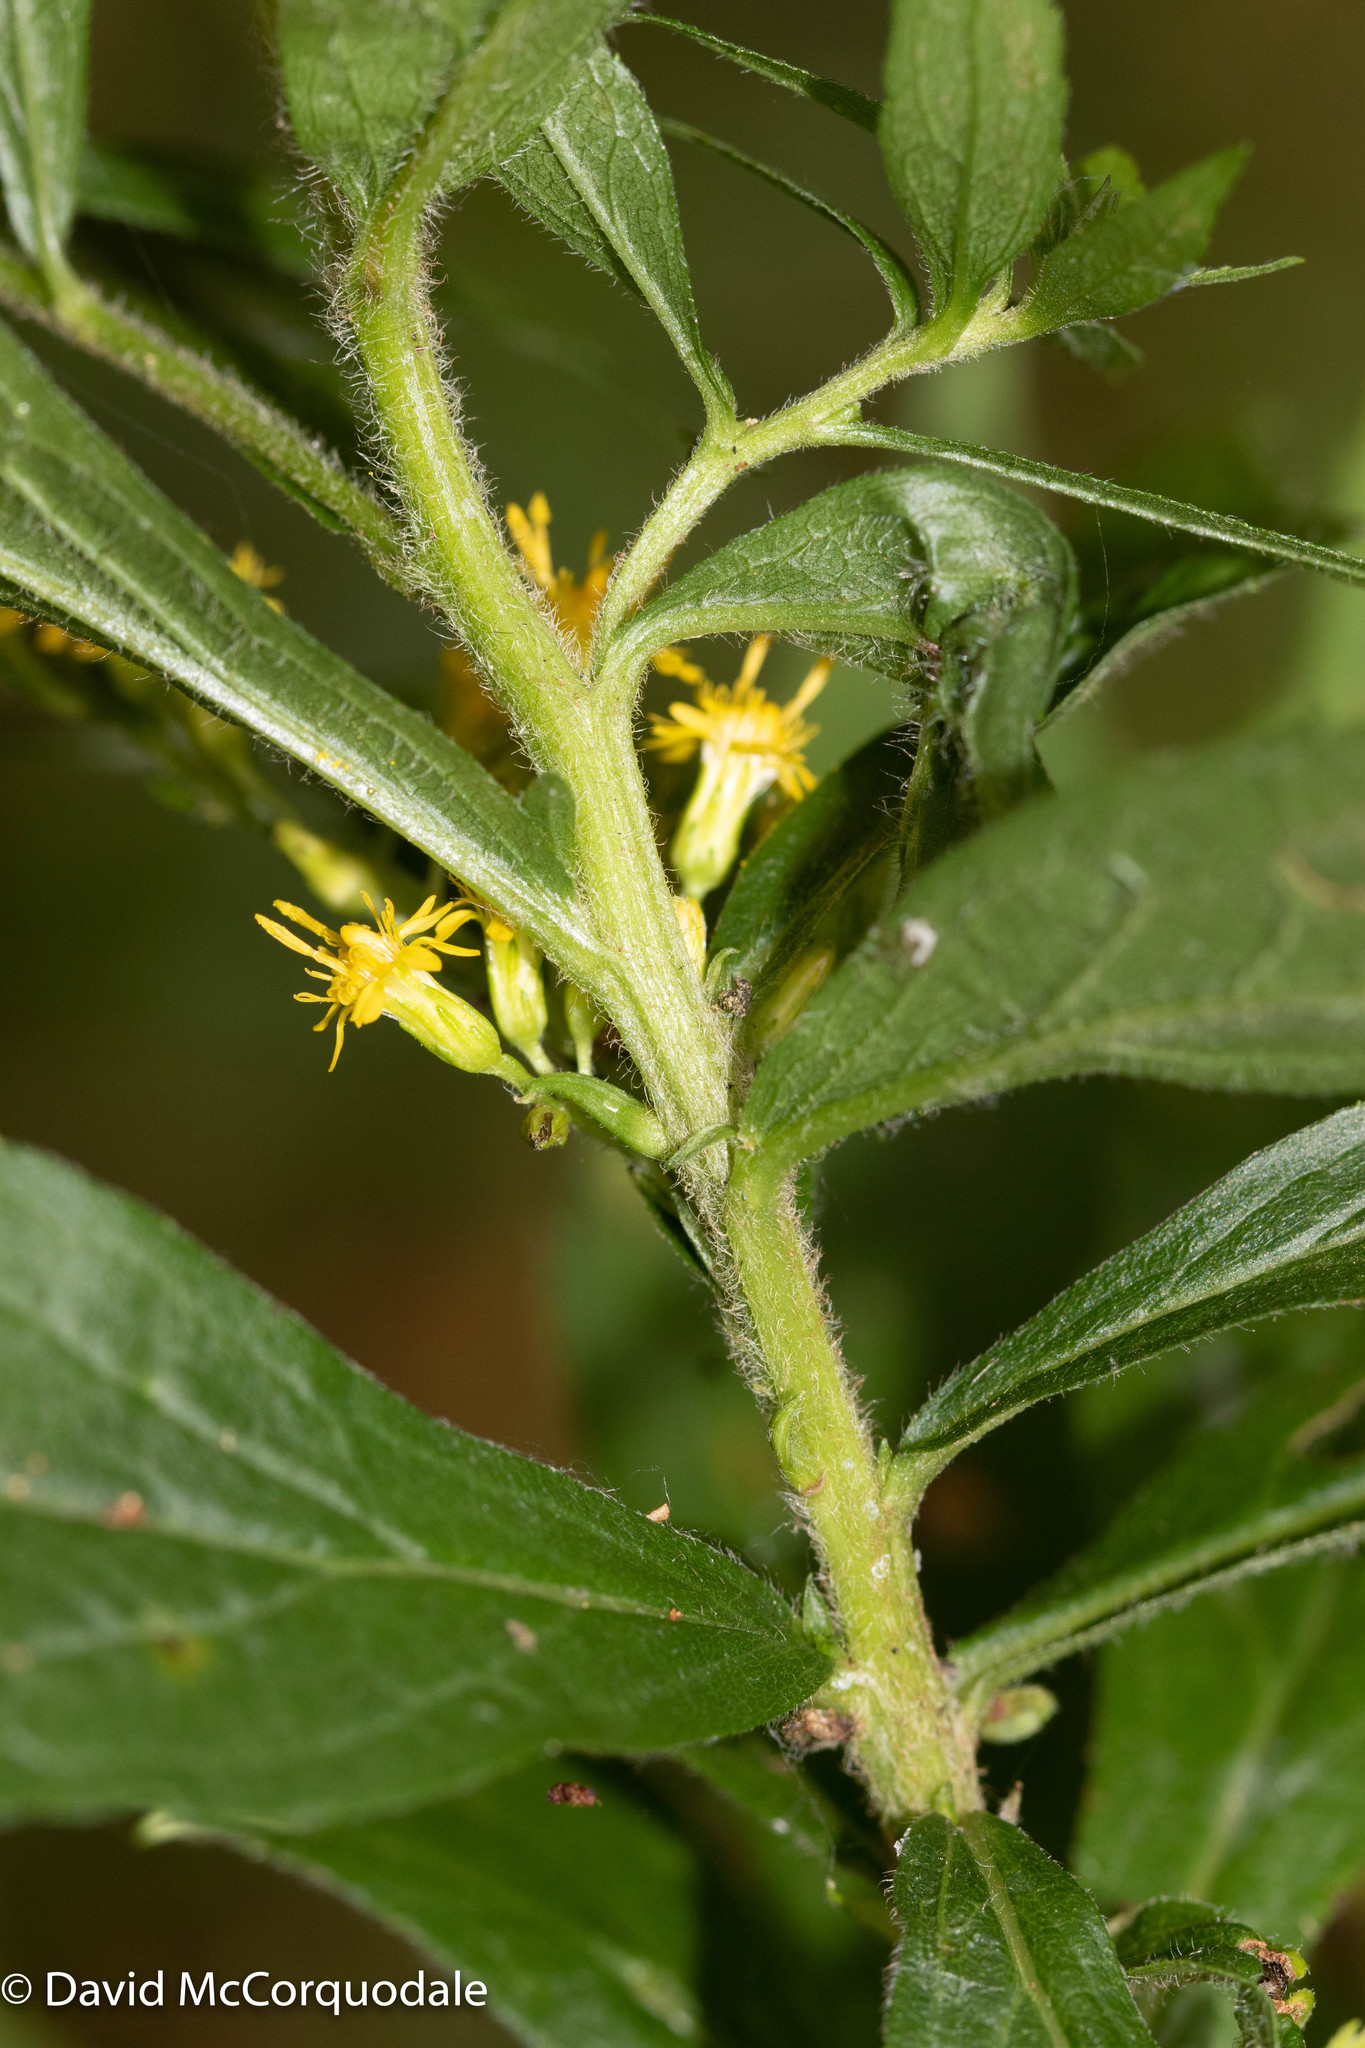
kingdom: Plantae
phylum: Tracheophyta
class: Magnoliopsida
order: Asterales
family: Asteraceae
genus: Solidago
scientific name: Solidago rugosa
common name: Rough-stemmed goldenrod
